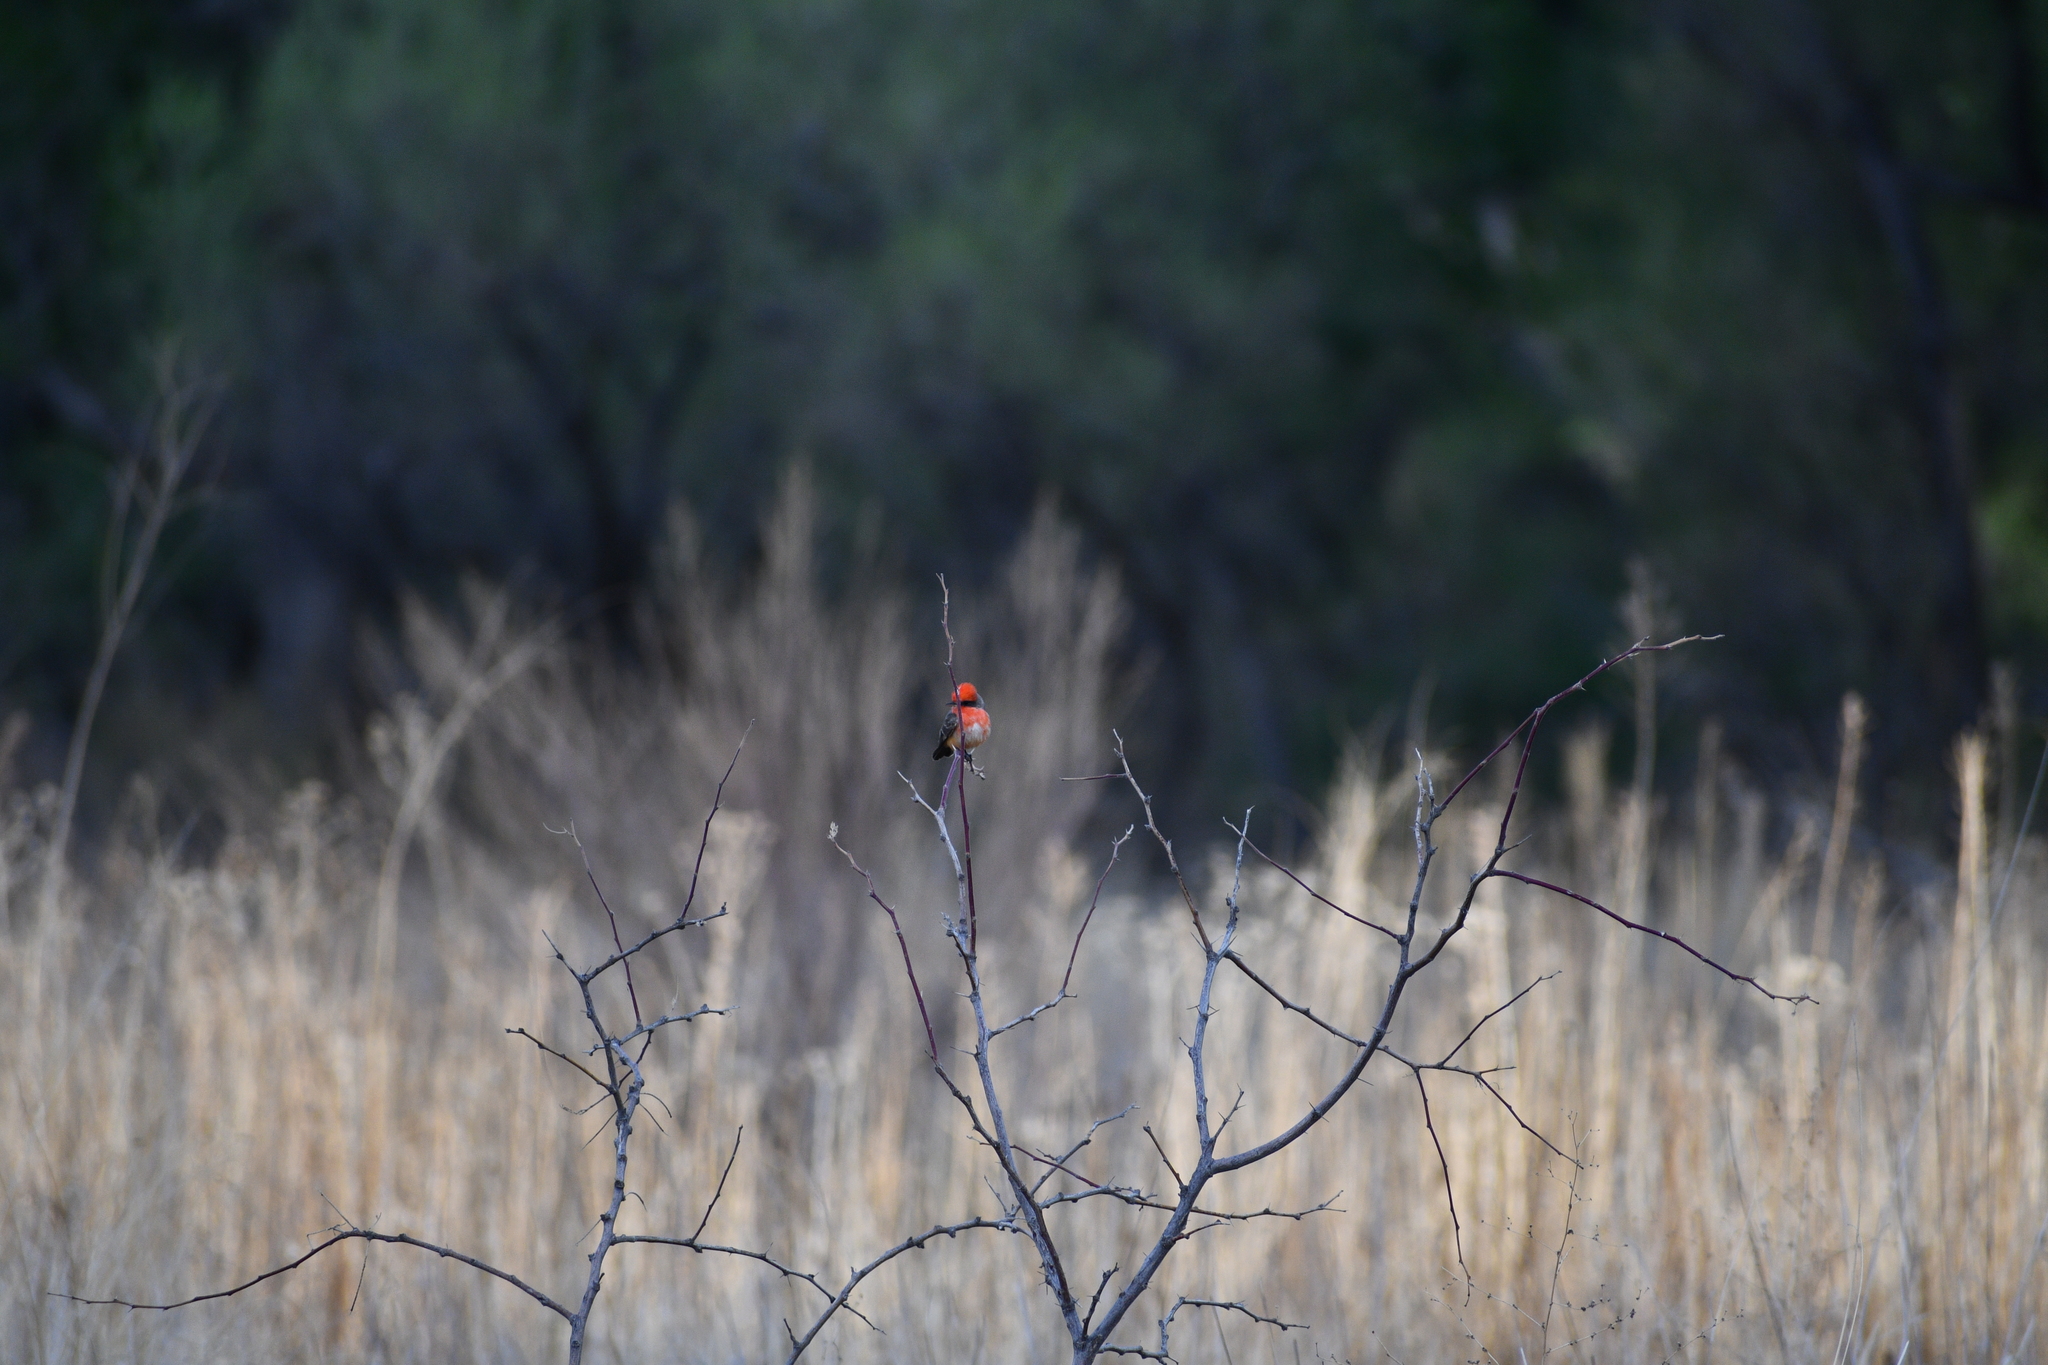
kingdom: Animalia
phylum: Chordata
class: Aves
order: Passeriformes
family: Tyrannidae
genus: Pyrocephalus
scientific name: Pyrocephalus rubinus
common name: Vermilion flycatcher
